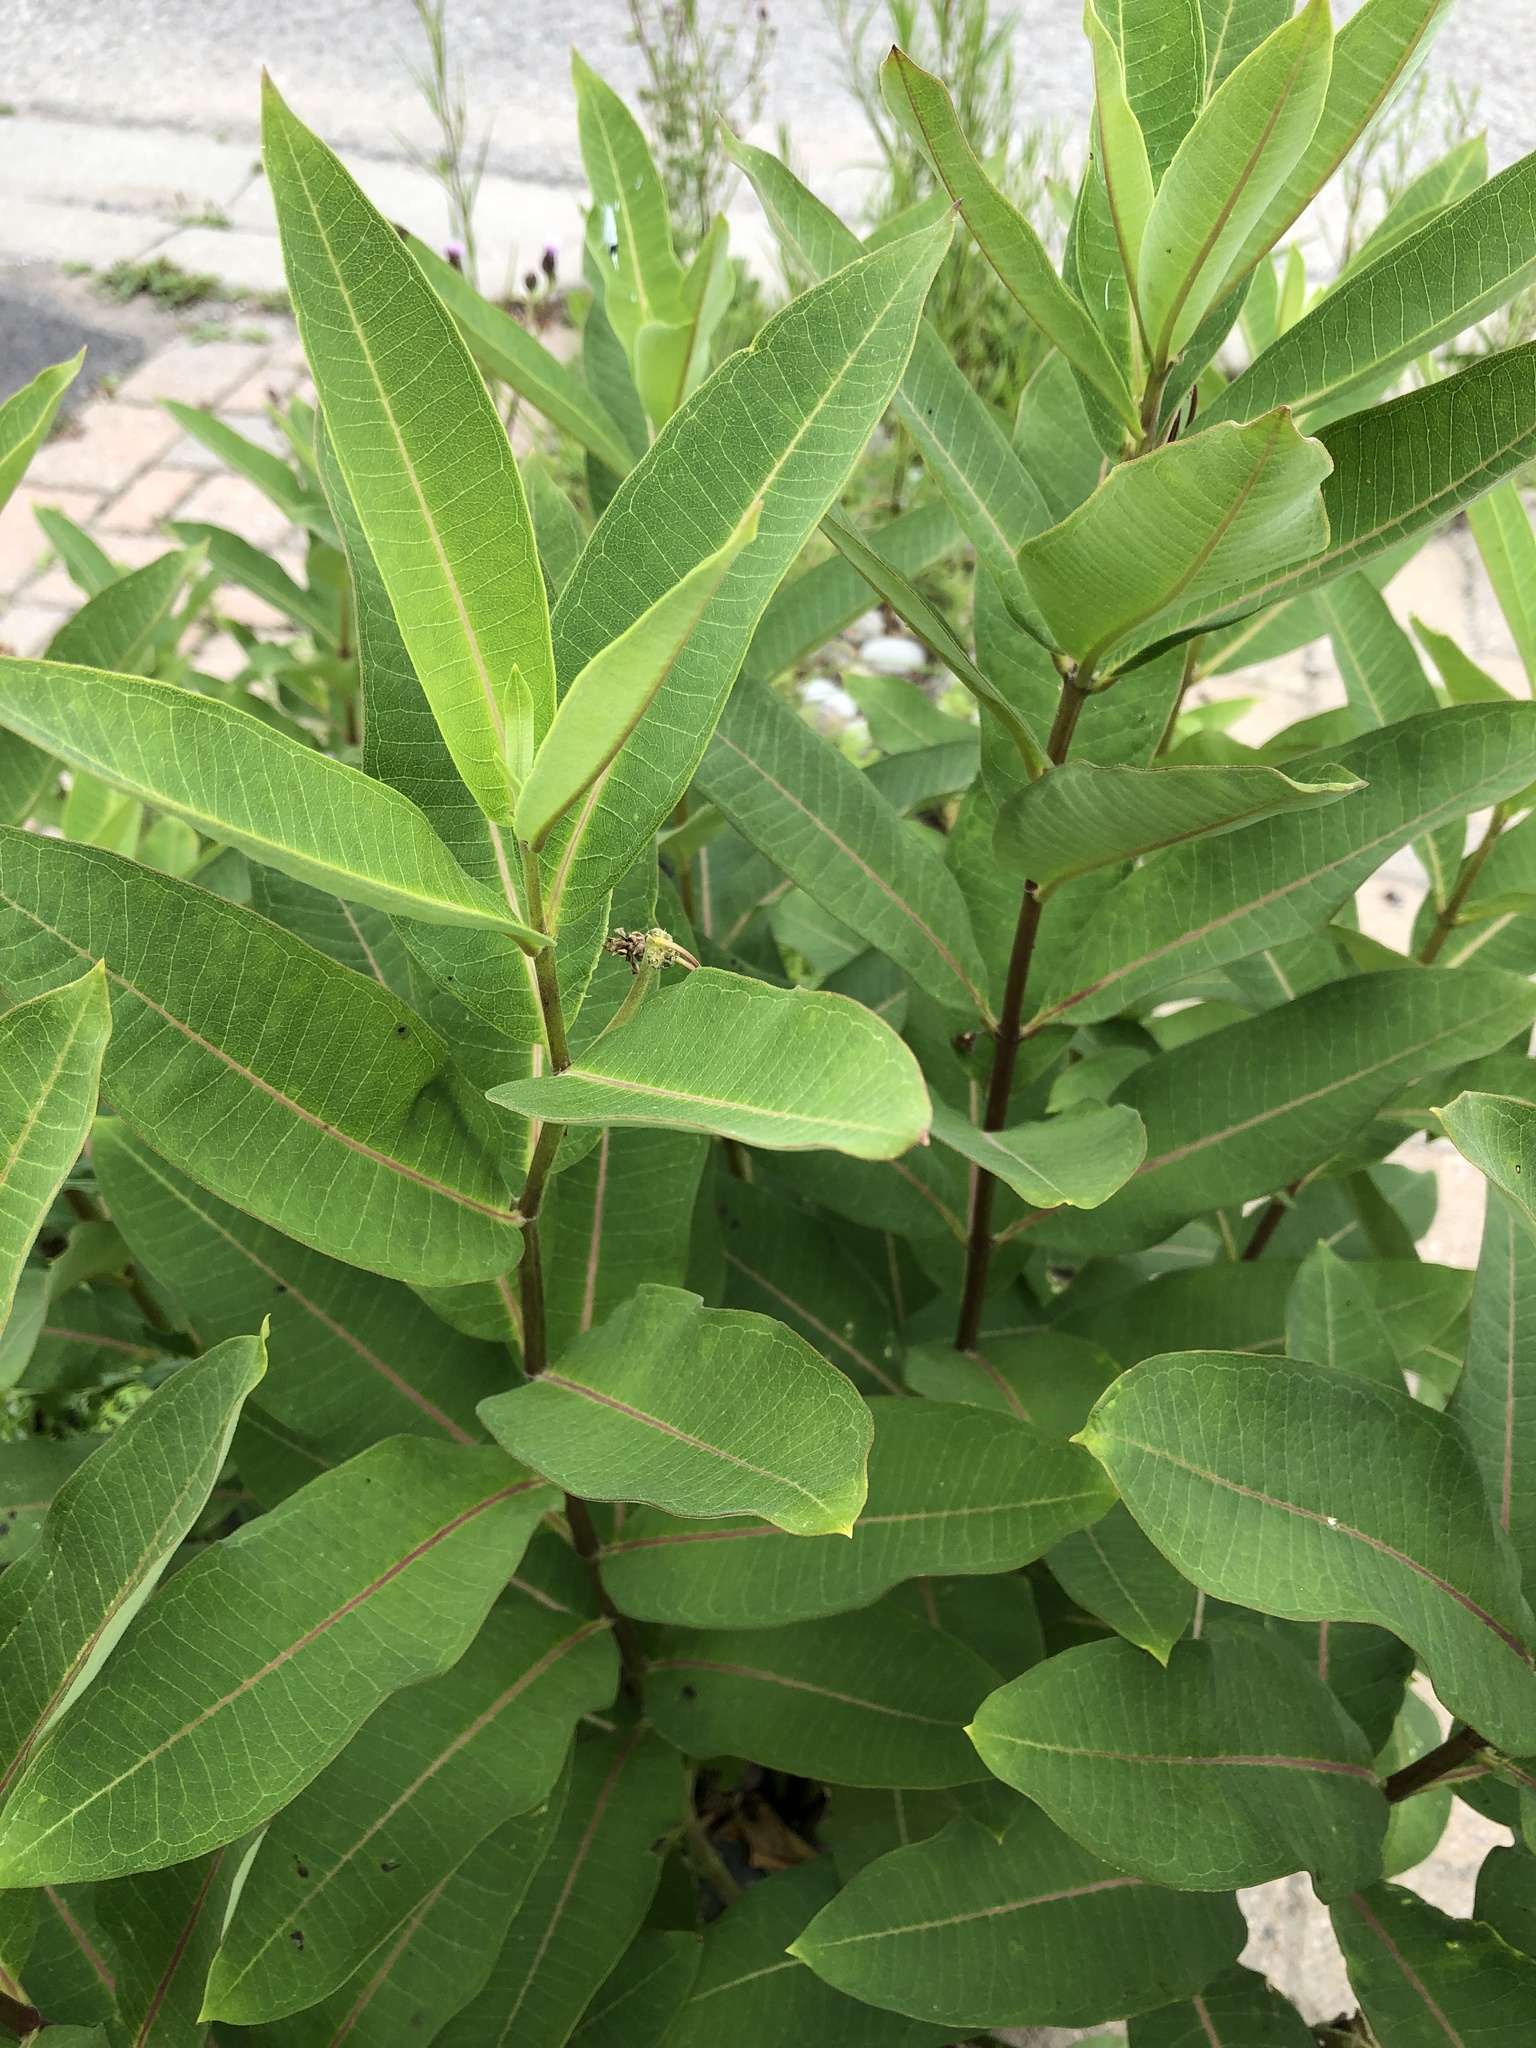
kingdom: Plantae
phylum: Tracheophyta
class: Magnoliopsida
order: Gentianales
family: Apocynaceae
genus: Asclepias
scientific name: Asclepias syriaca
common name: Common milkweed
